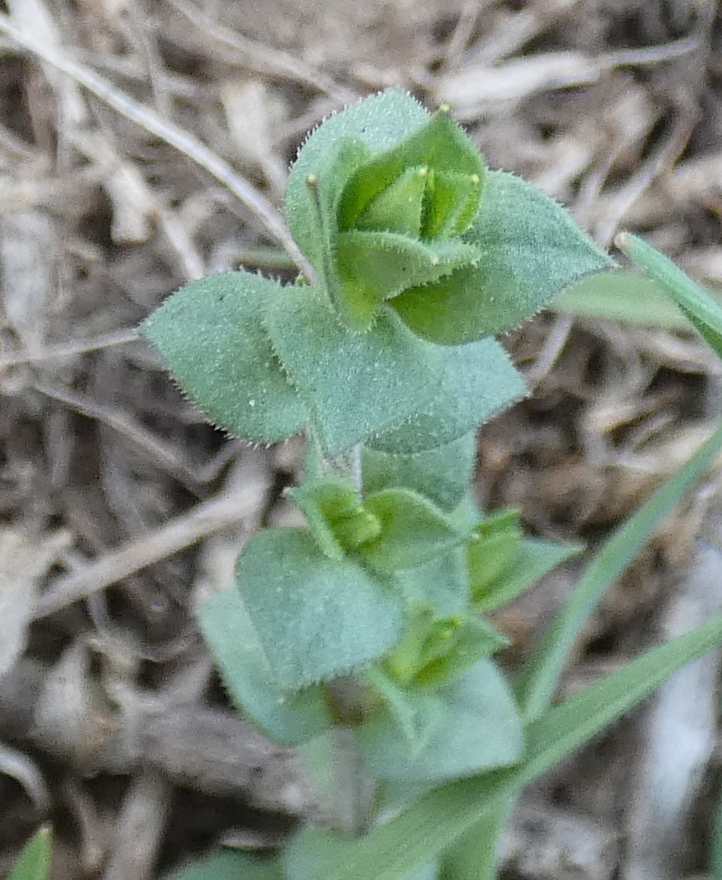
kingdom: Plantae
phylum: Tracheophyta
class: Magnoliopsida
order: Caryophyllales
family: Caryophyllaceae
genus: Arenaria
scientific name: Arenaria serpyllifolia
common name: Thyme-leaved sandwort
